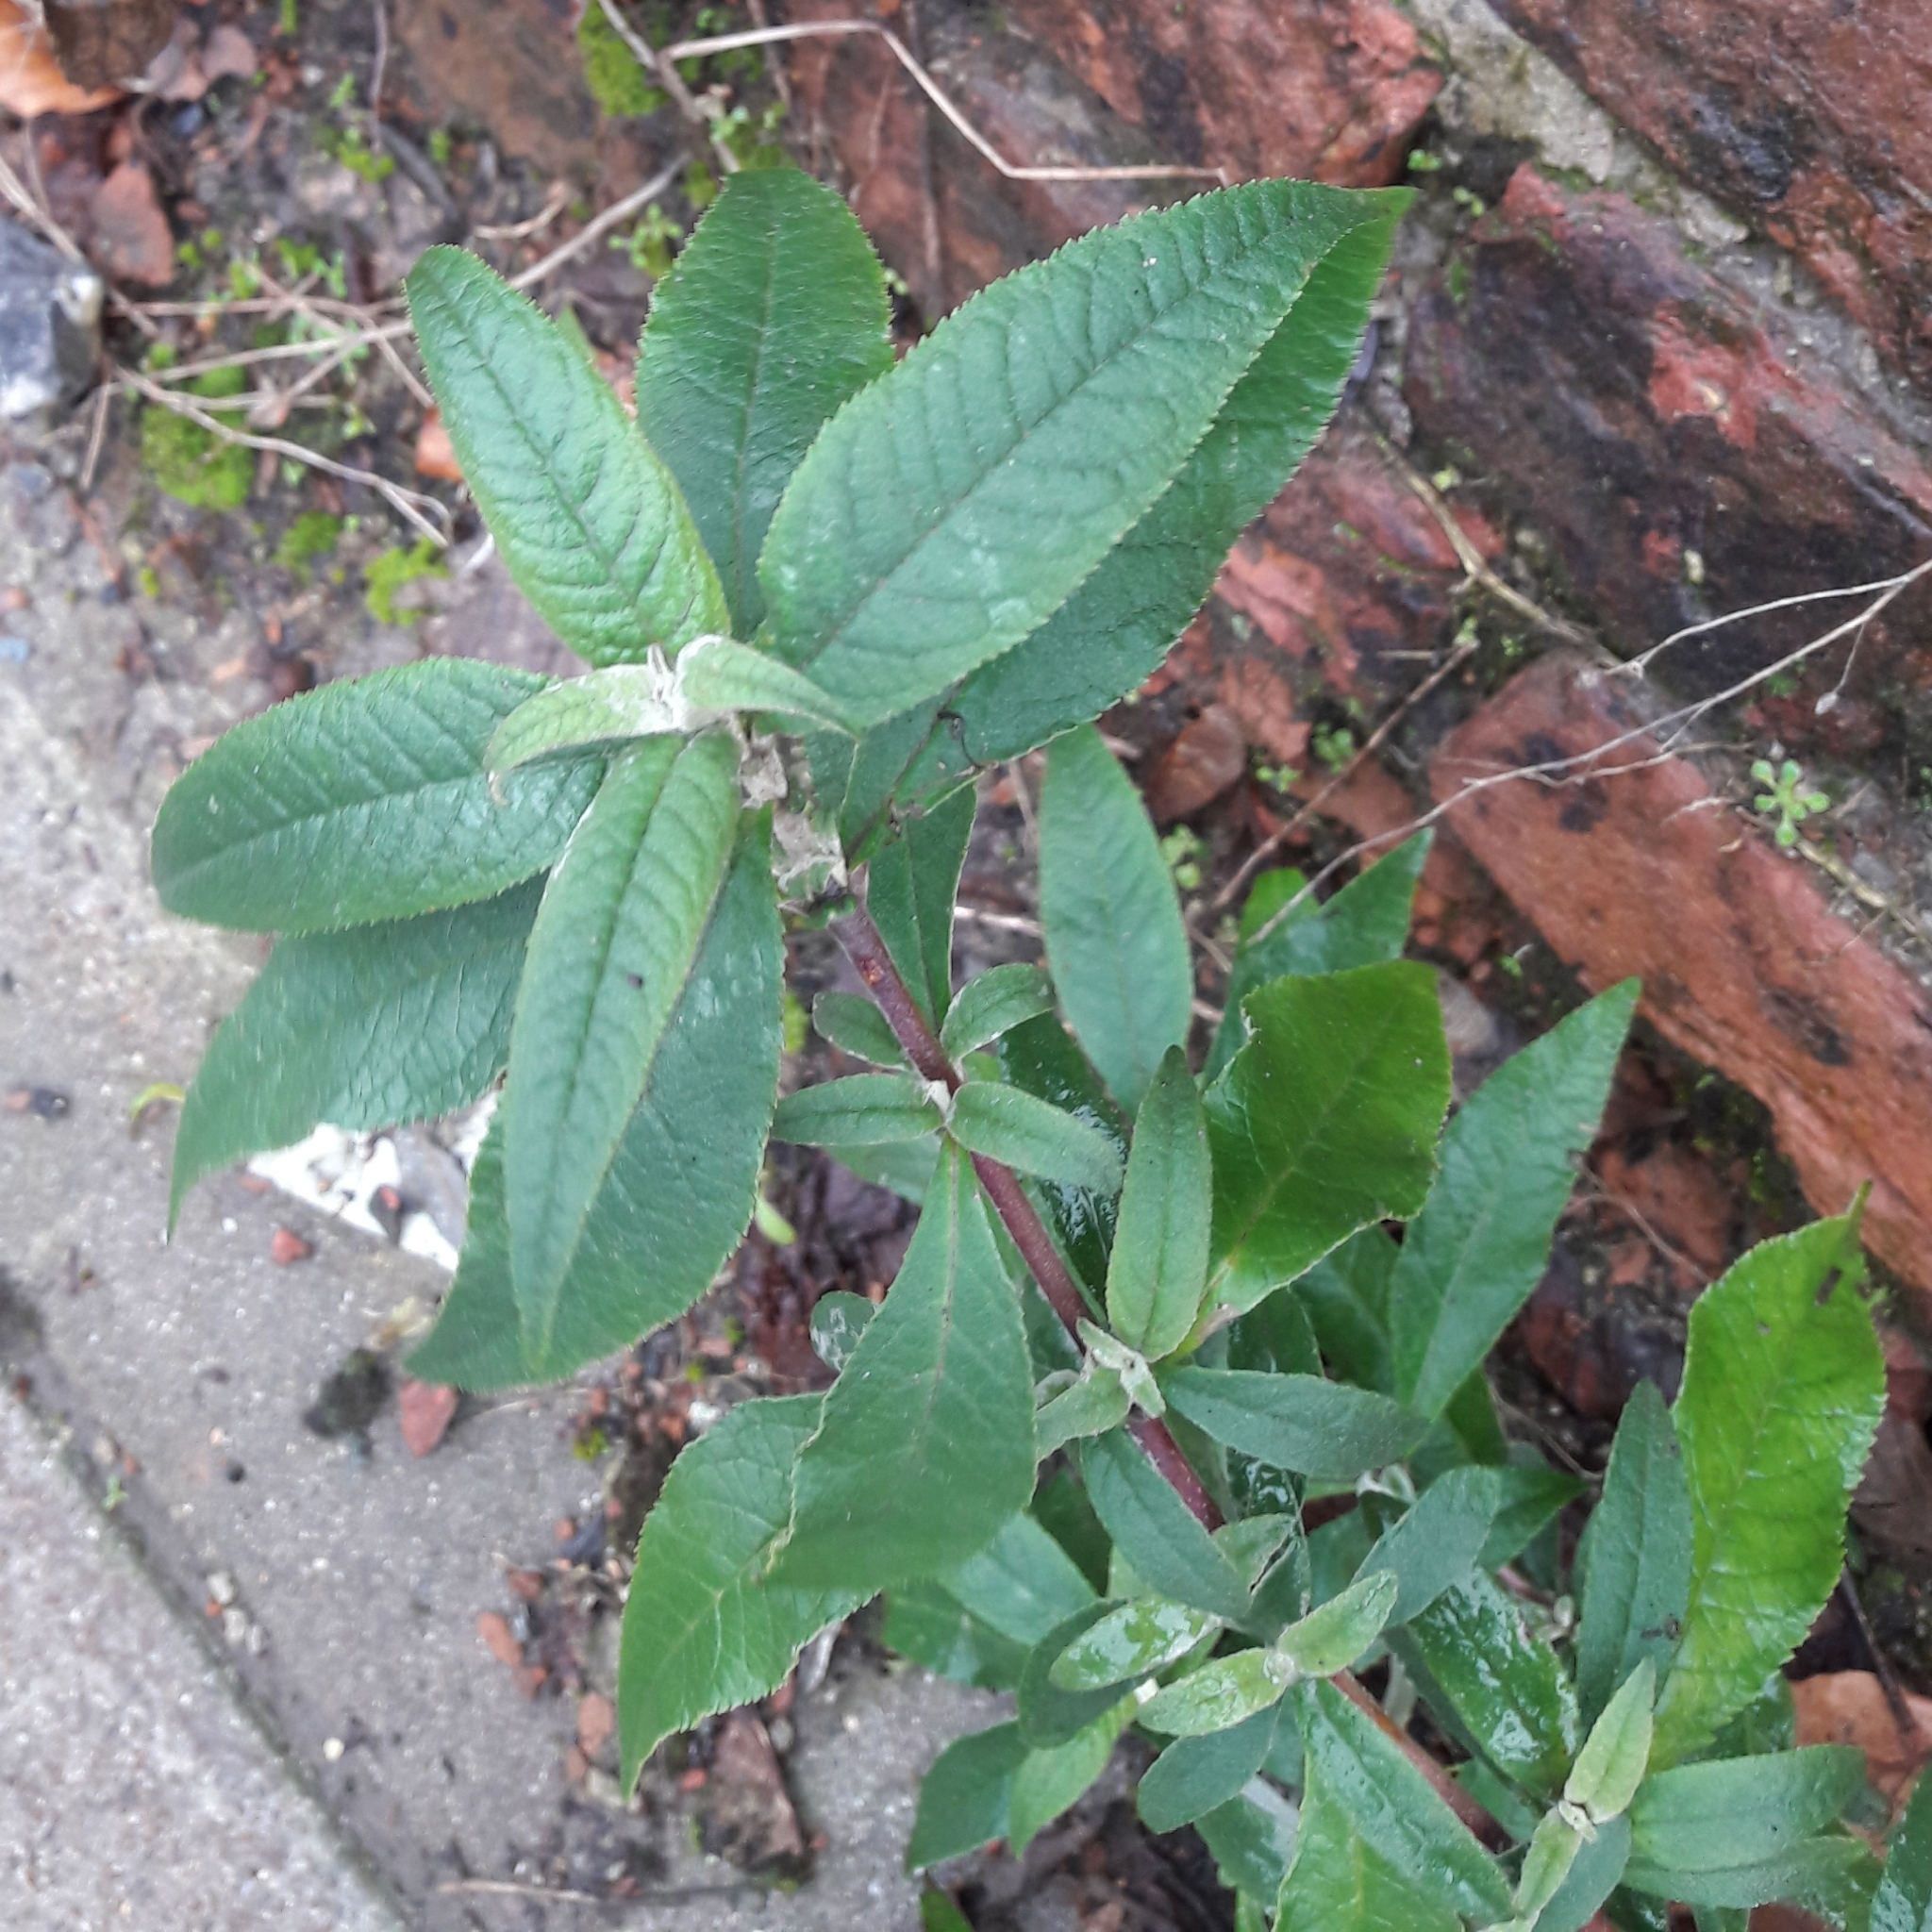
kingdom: Plantae
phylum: Tracheophyta
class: Magnoliopsida
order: Lamiales
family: Scrophulariaceae
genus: Buddleja
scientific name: Buddleja davidii
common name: Butterfly-bush
